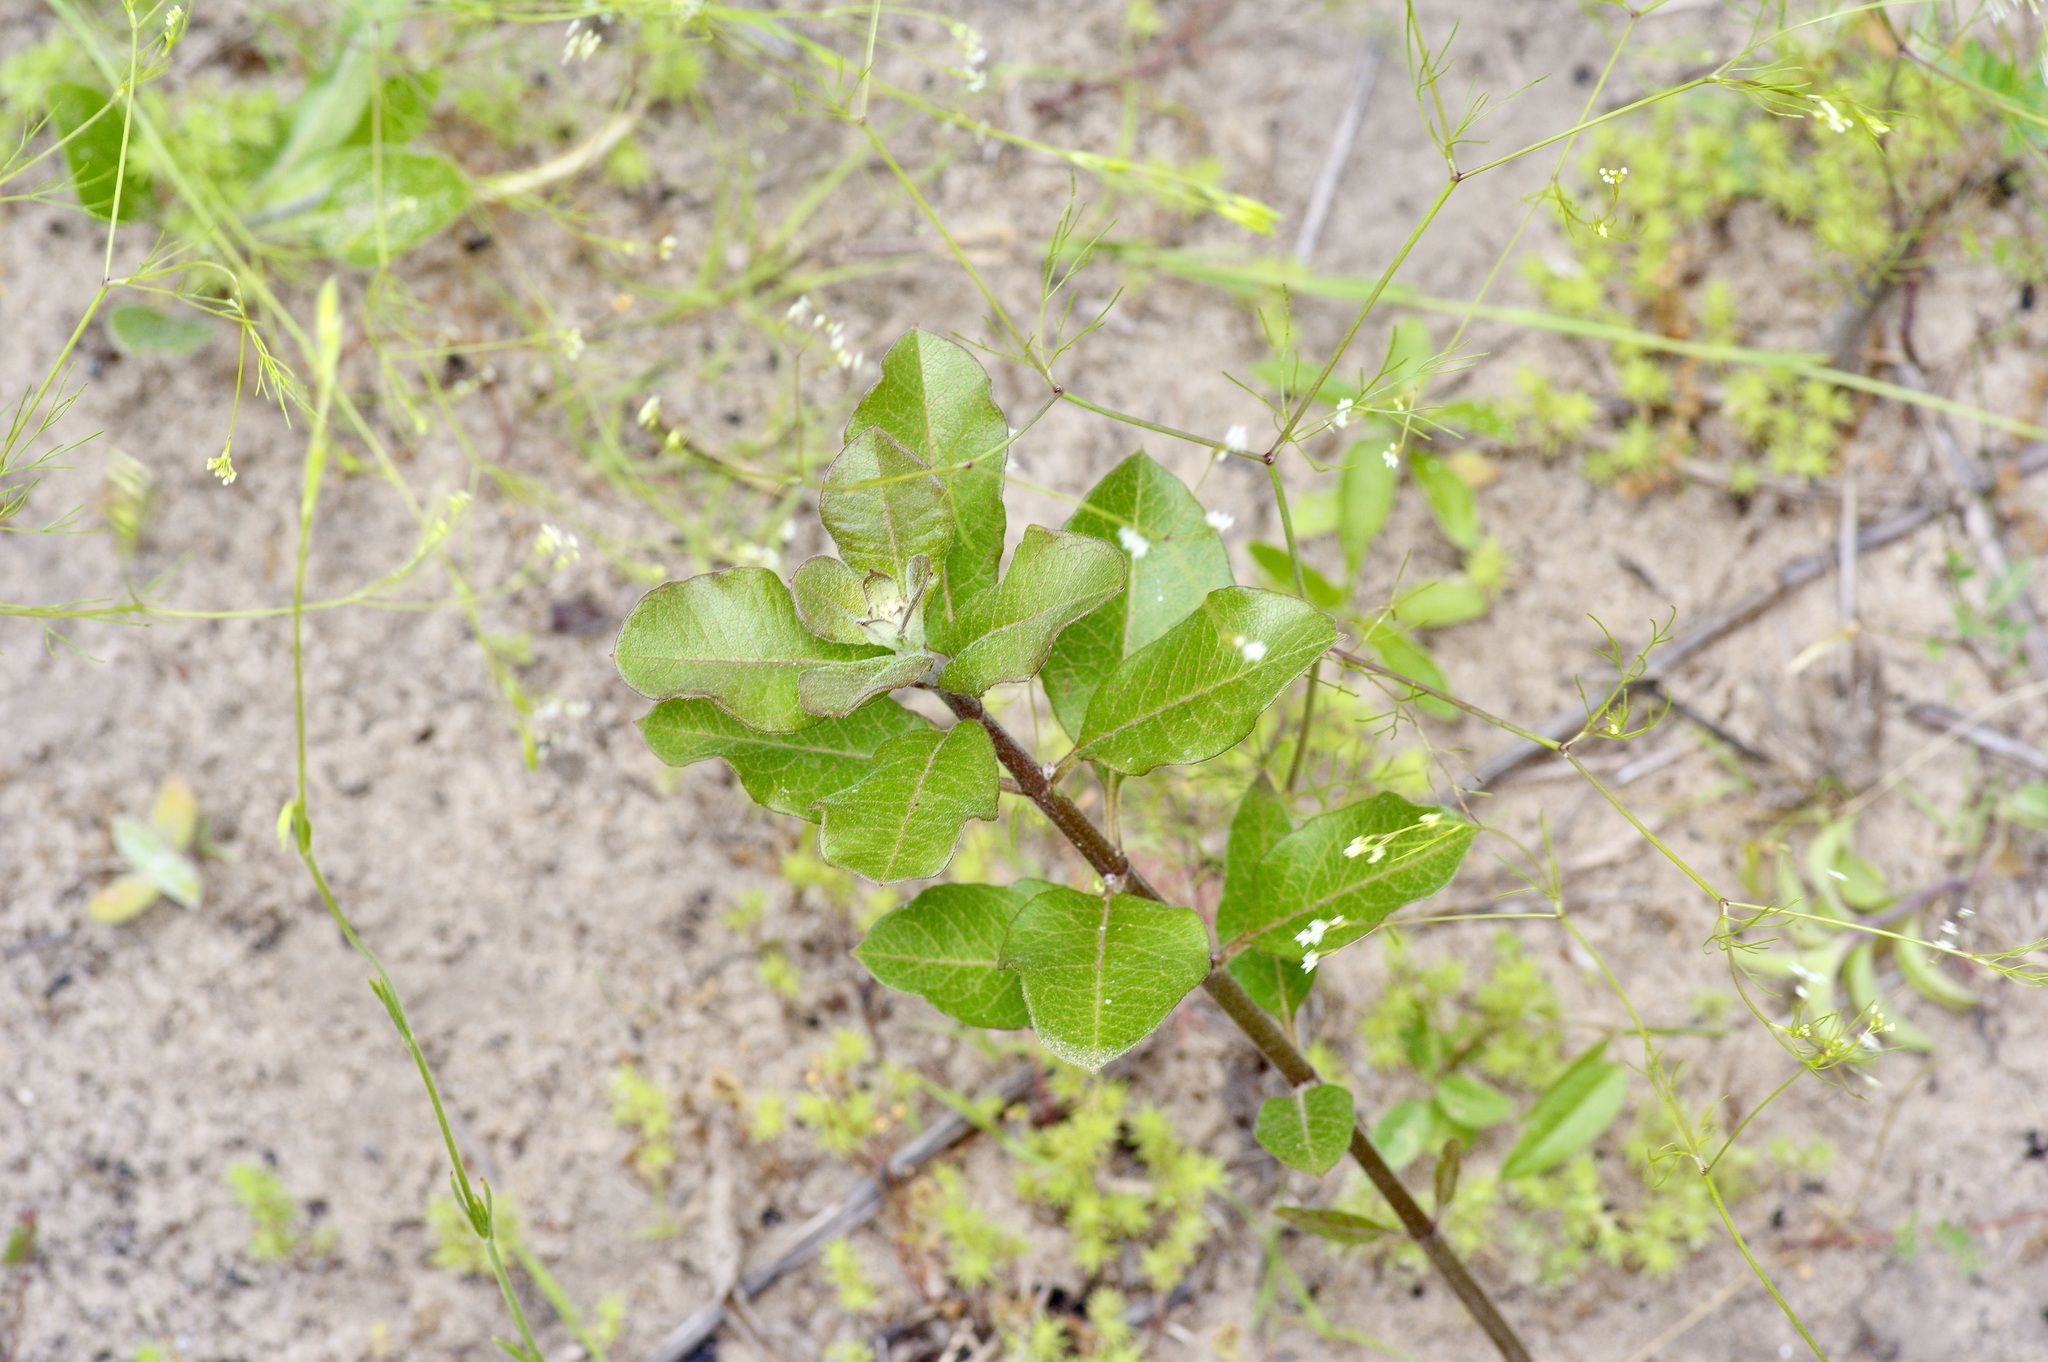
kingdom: Plantae
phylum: Tracheophyta
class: Magnoliopsida
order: Gentianales
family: Apocynaceae
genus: Asclepias
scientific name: Asclepias tomentosa
